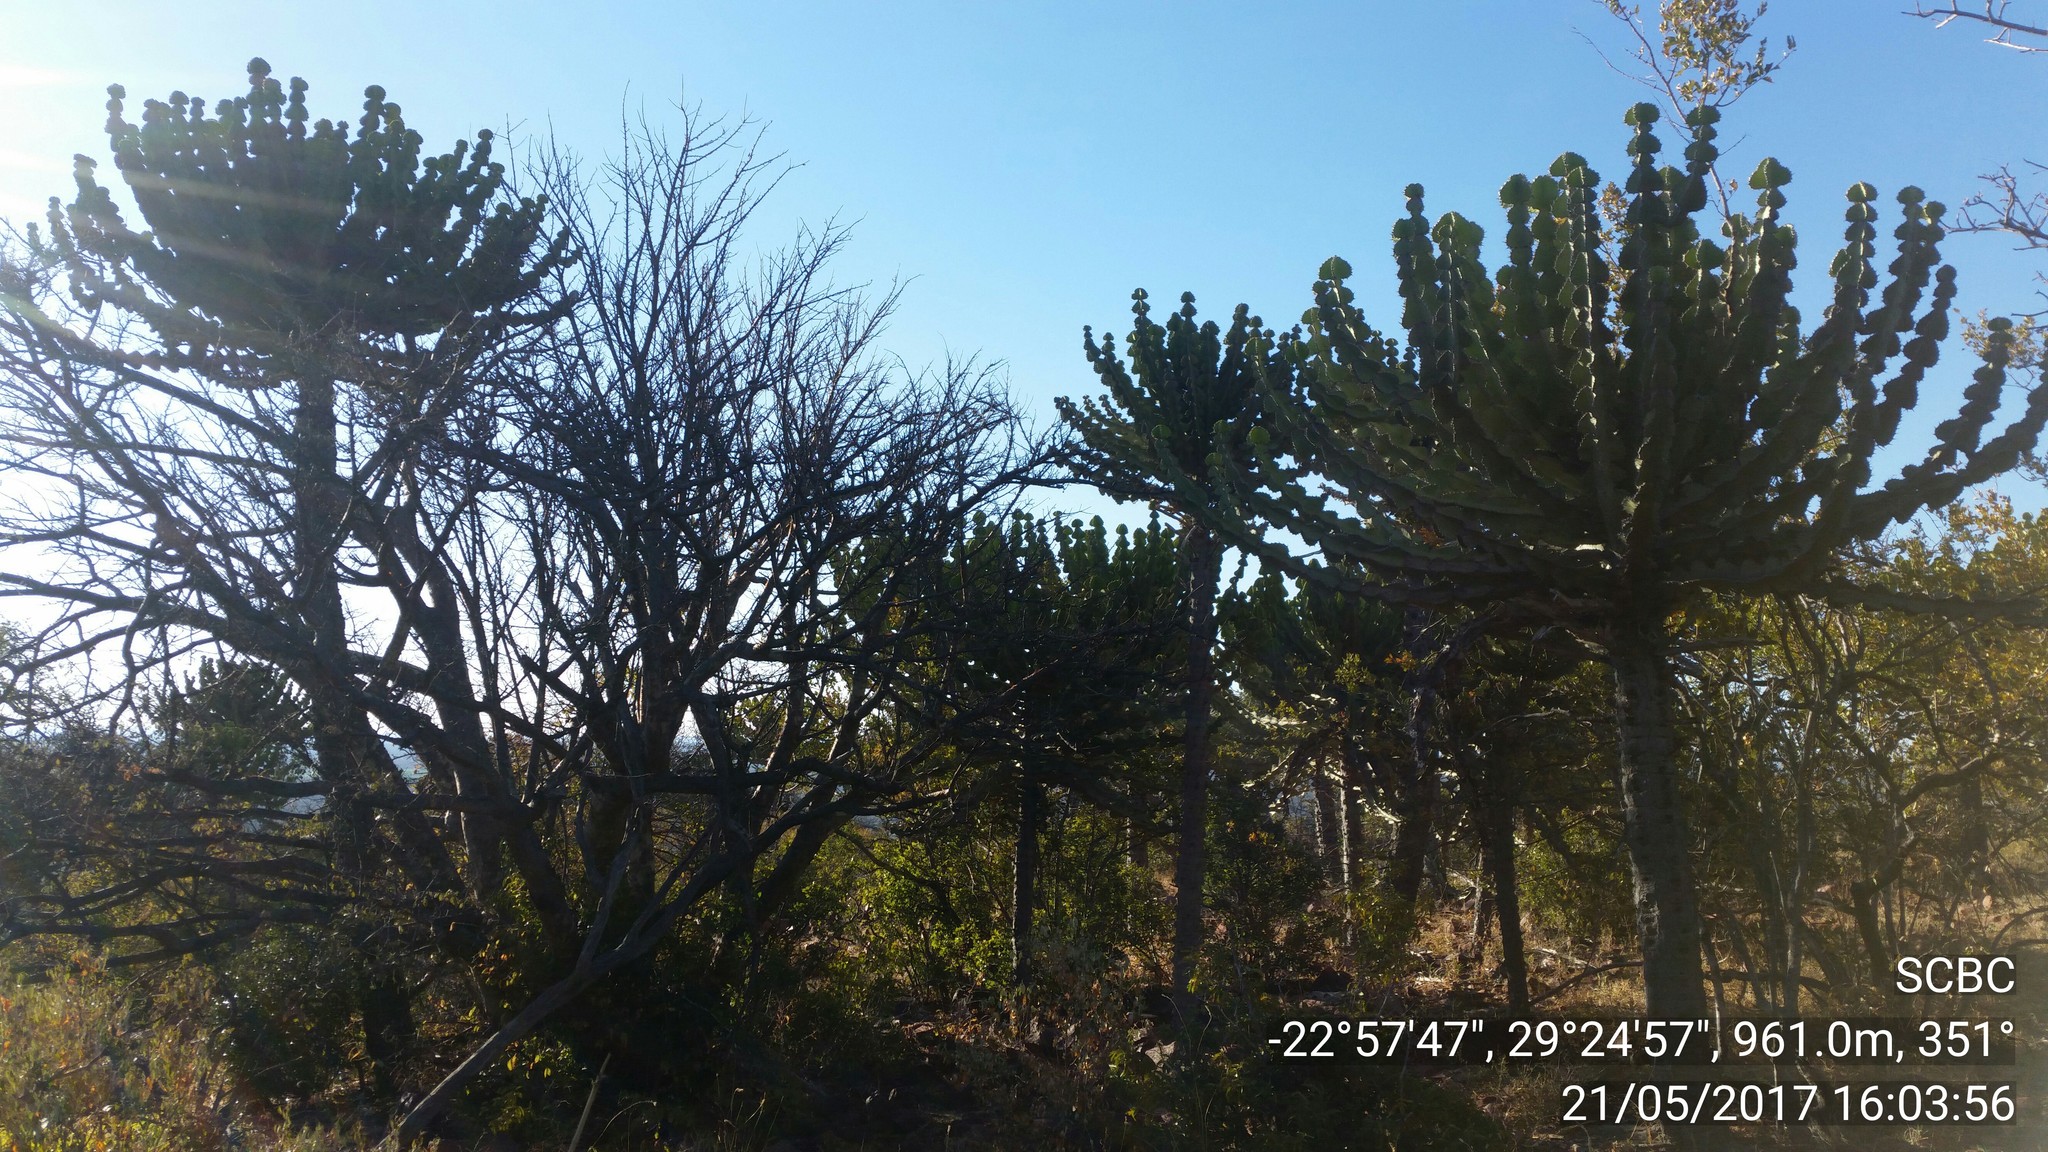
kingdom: Plantae
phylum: Tracheophyta
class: Magnoliopsida
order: Malpighiales
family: Euphorbiaceae
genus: Euphorbia
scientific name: Euphorbia cooperi
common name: Candelabra tree
